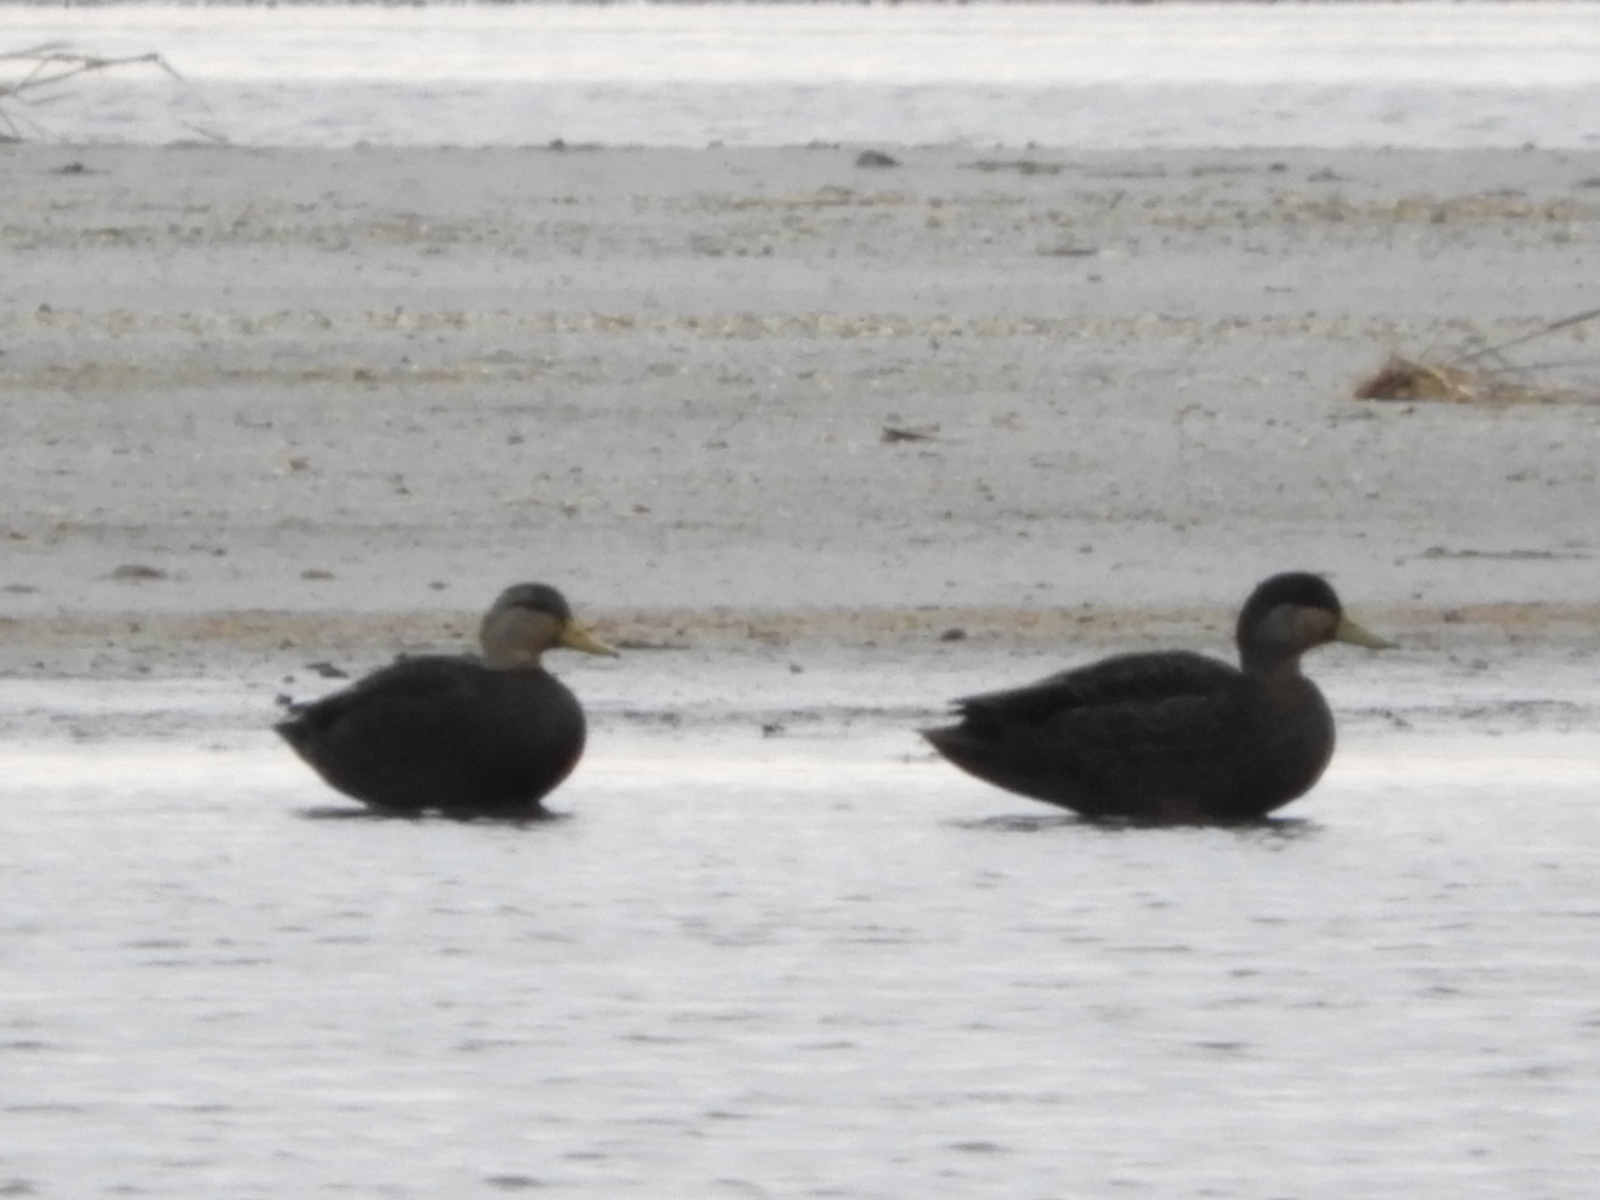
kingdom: Animalia
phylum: Chordata
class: Aves
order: Anseriformes
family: Anatidae
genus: Anas
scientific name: Anas rubripes
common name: American black duck
